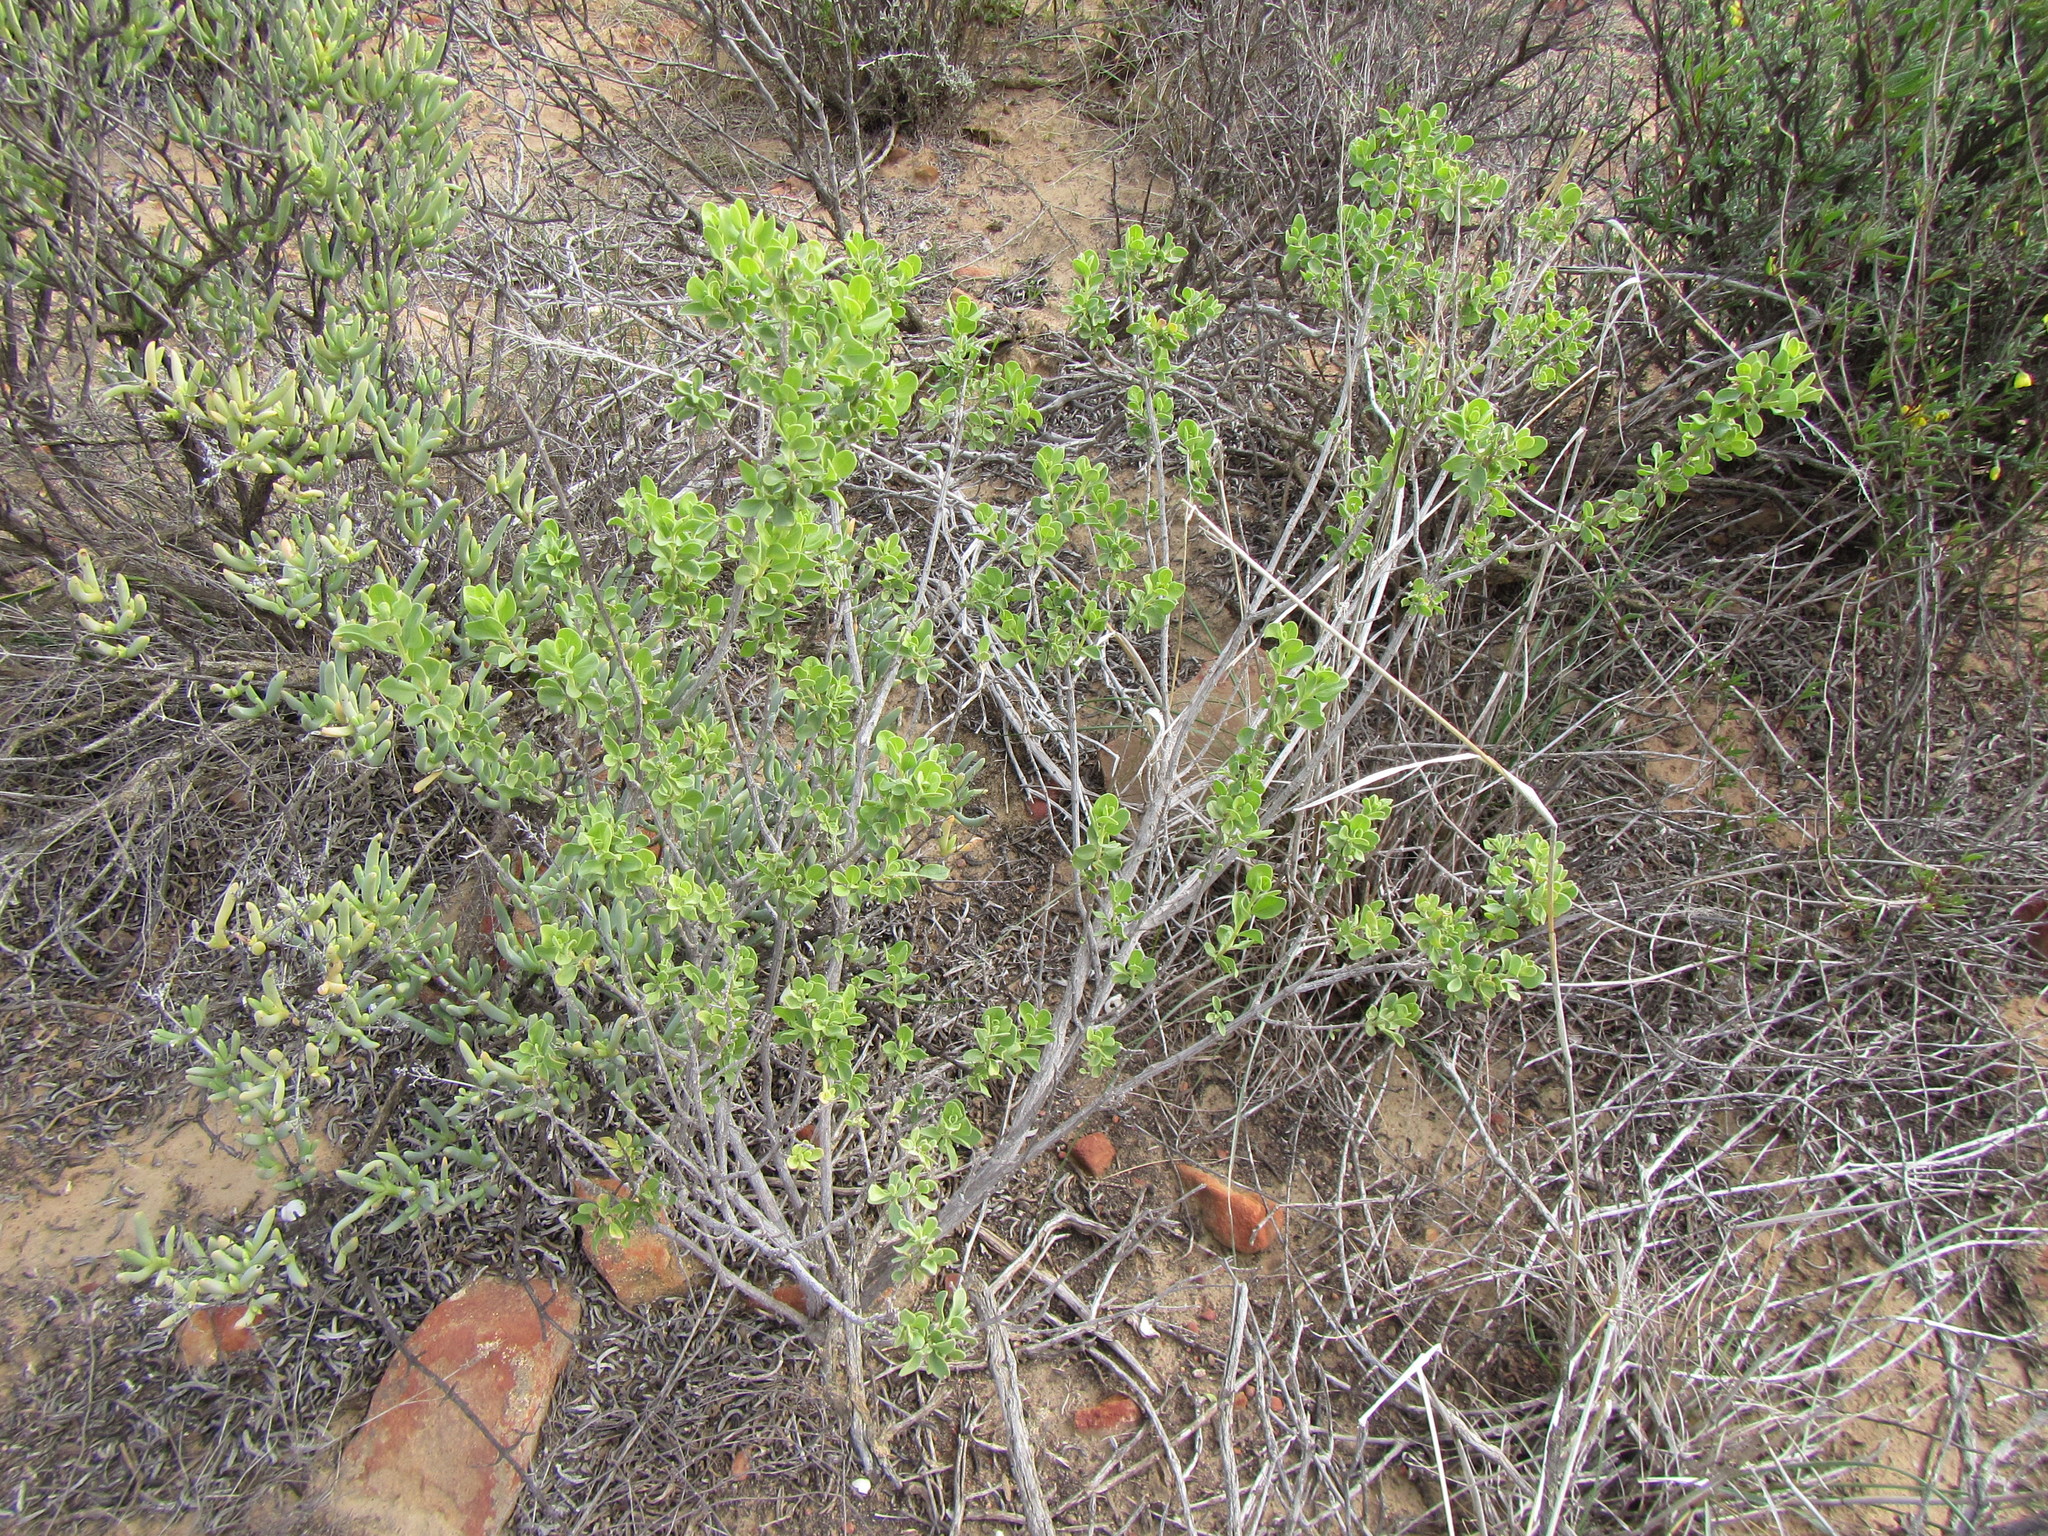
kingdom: Plantae
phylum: Tracheophyta
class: Magnoliopsida
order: Asterales
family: Asteraceae
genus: Pteronia
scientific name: Pteronia divaricata
